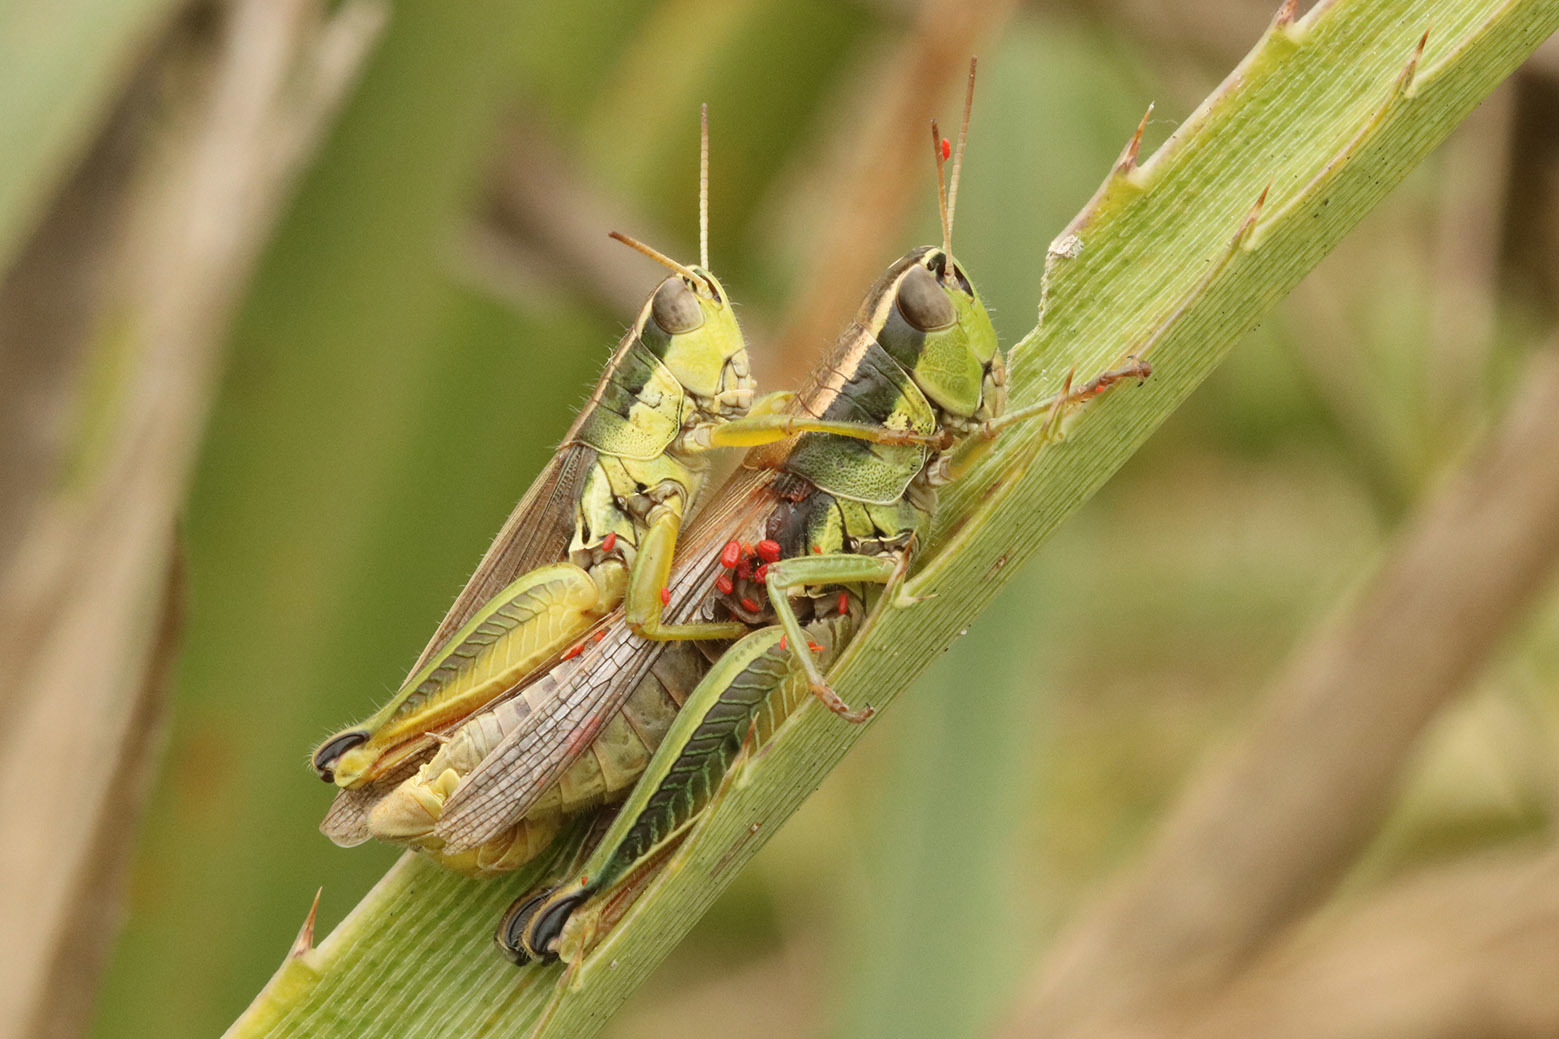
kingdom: Animalia
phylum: Arthropoda
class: Insecta
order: Orthoptera
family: Acrididae
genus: Scotussa
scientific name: Scotussa cliens
